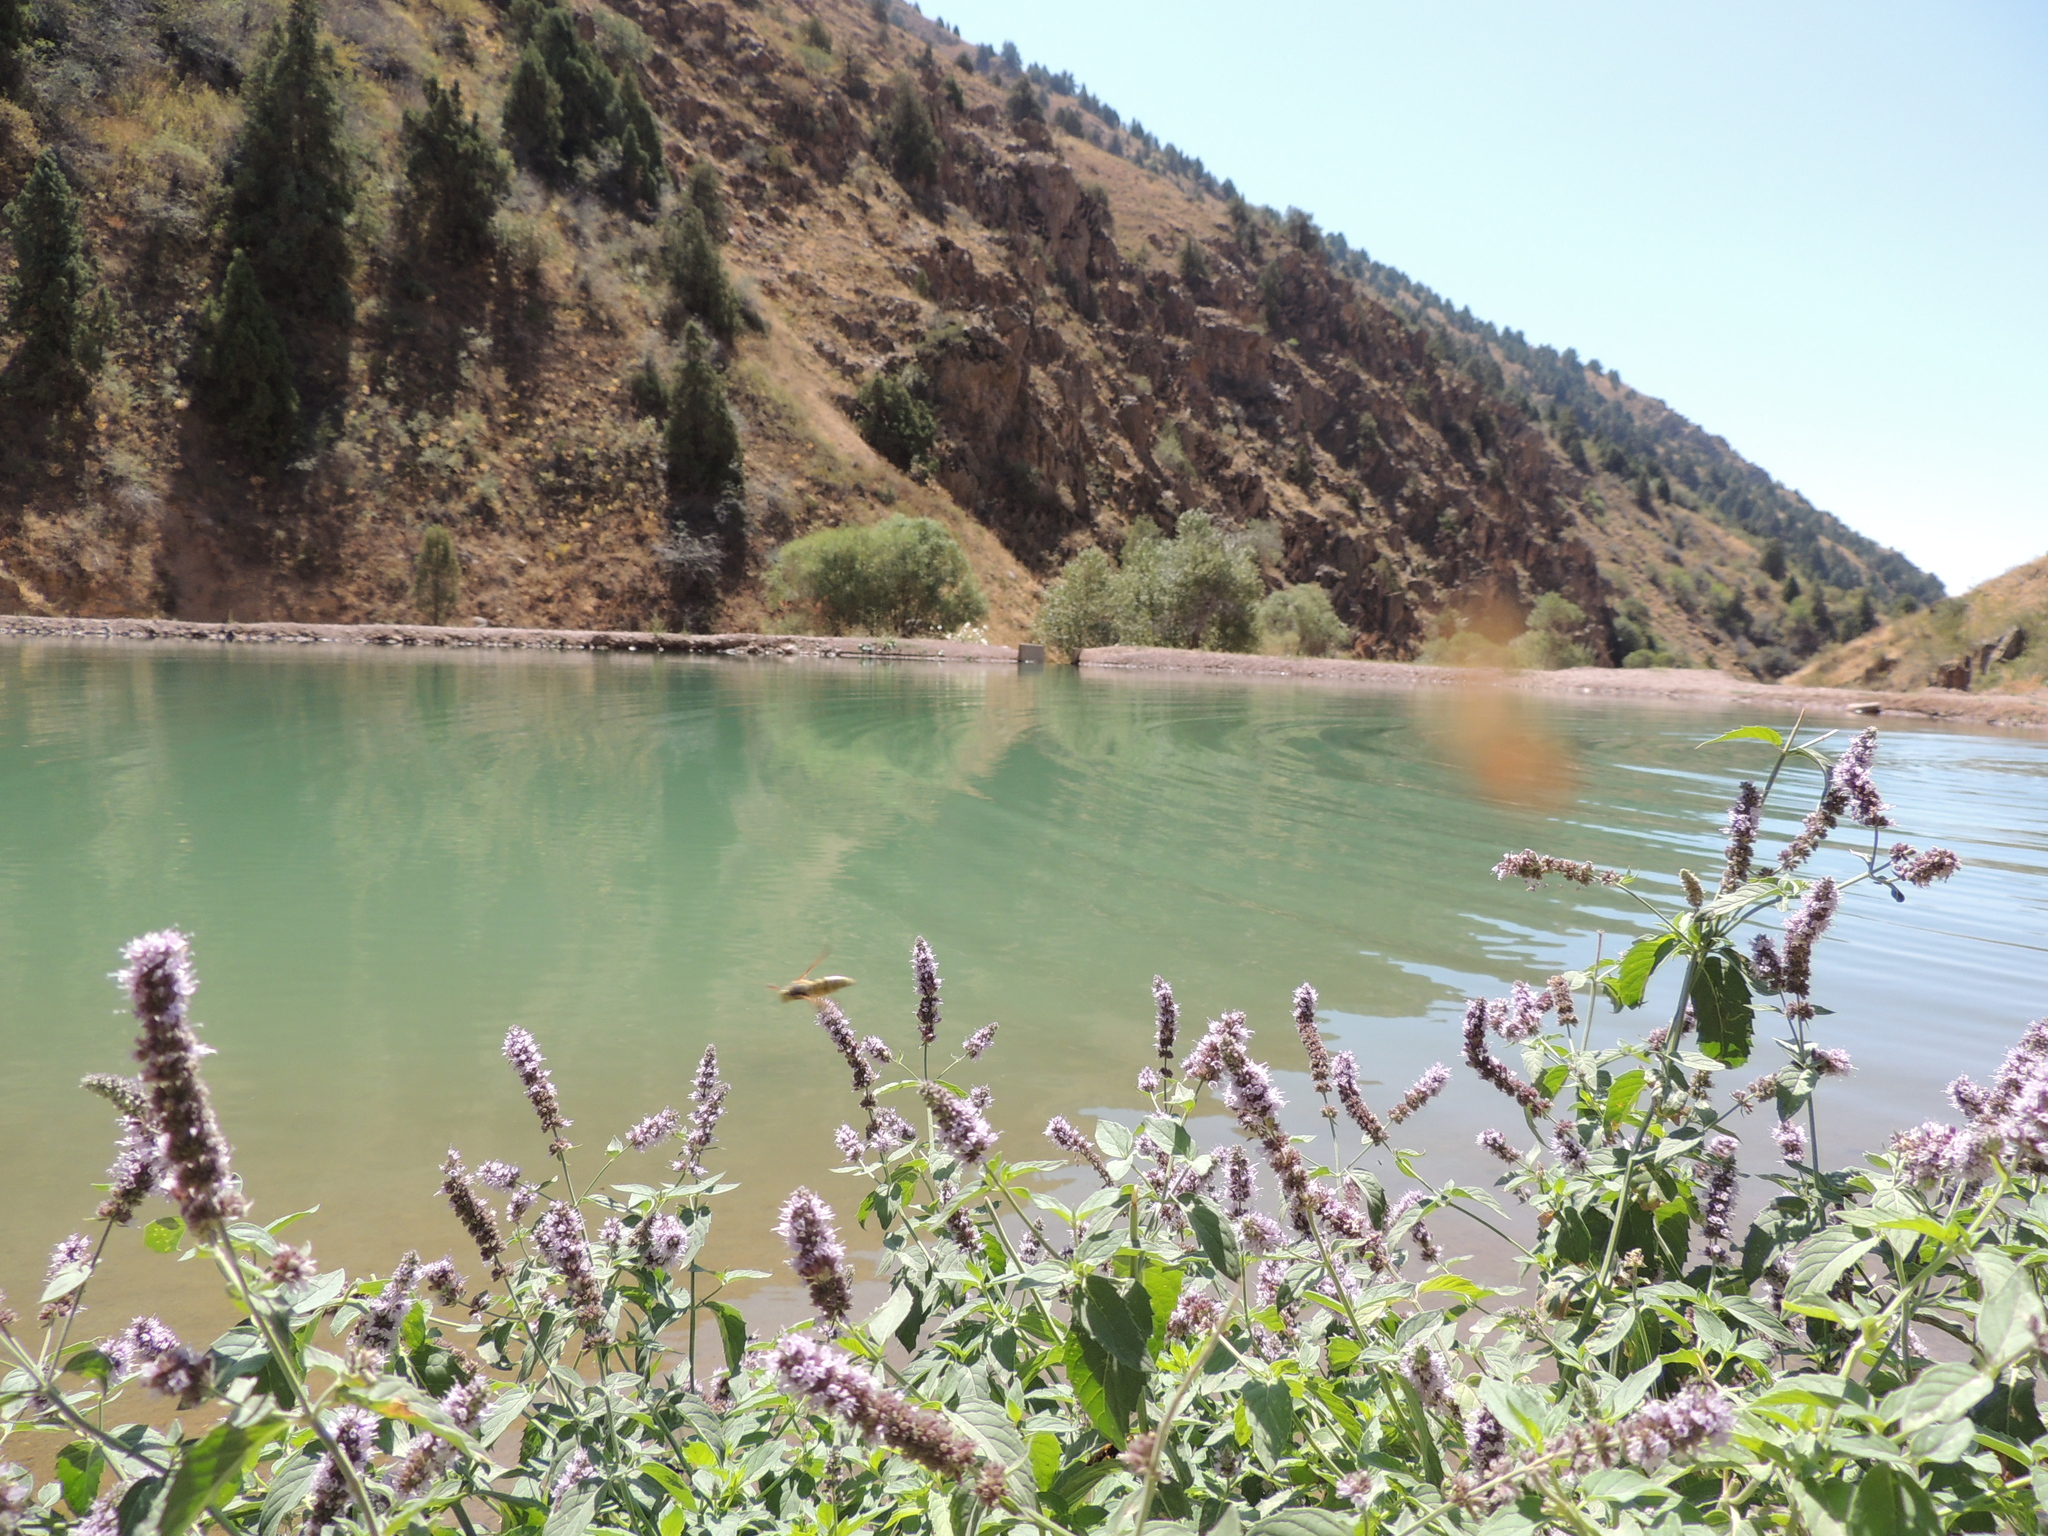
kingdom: Plantae
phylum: Tracheophyta
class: Magnoliopsida
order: Lamiales
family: Lamiaceae
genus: Mentha
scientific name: Mentha longifolia
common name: Horse mint
